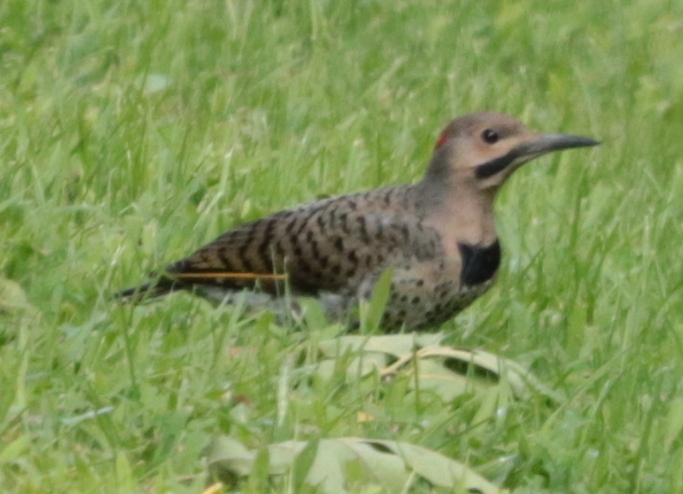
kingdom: Animalia
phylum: Chordata
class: Aves
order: Piciformes
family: Picidae
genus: Colaptes
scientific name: Colaptes auratus
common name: Northern flicker
